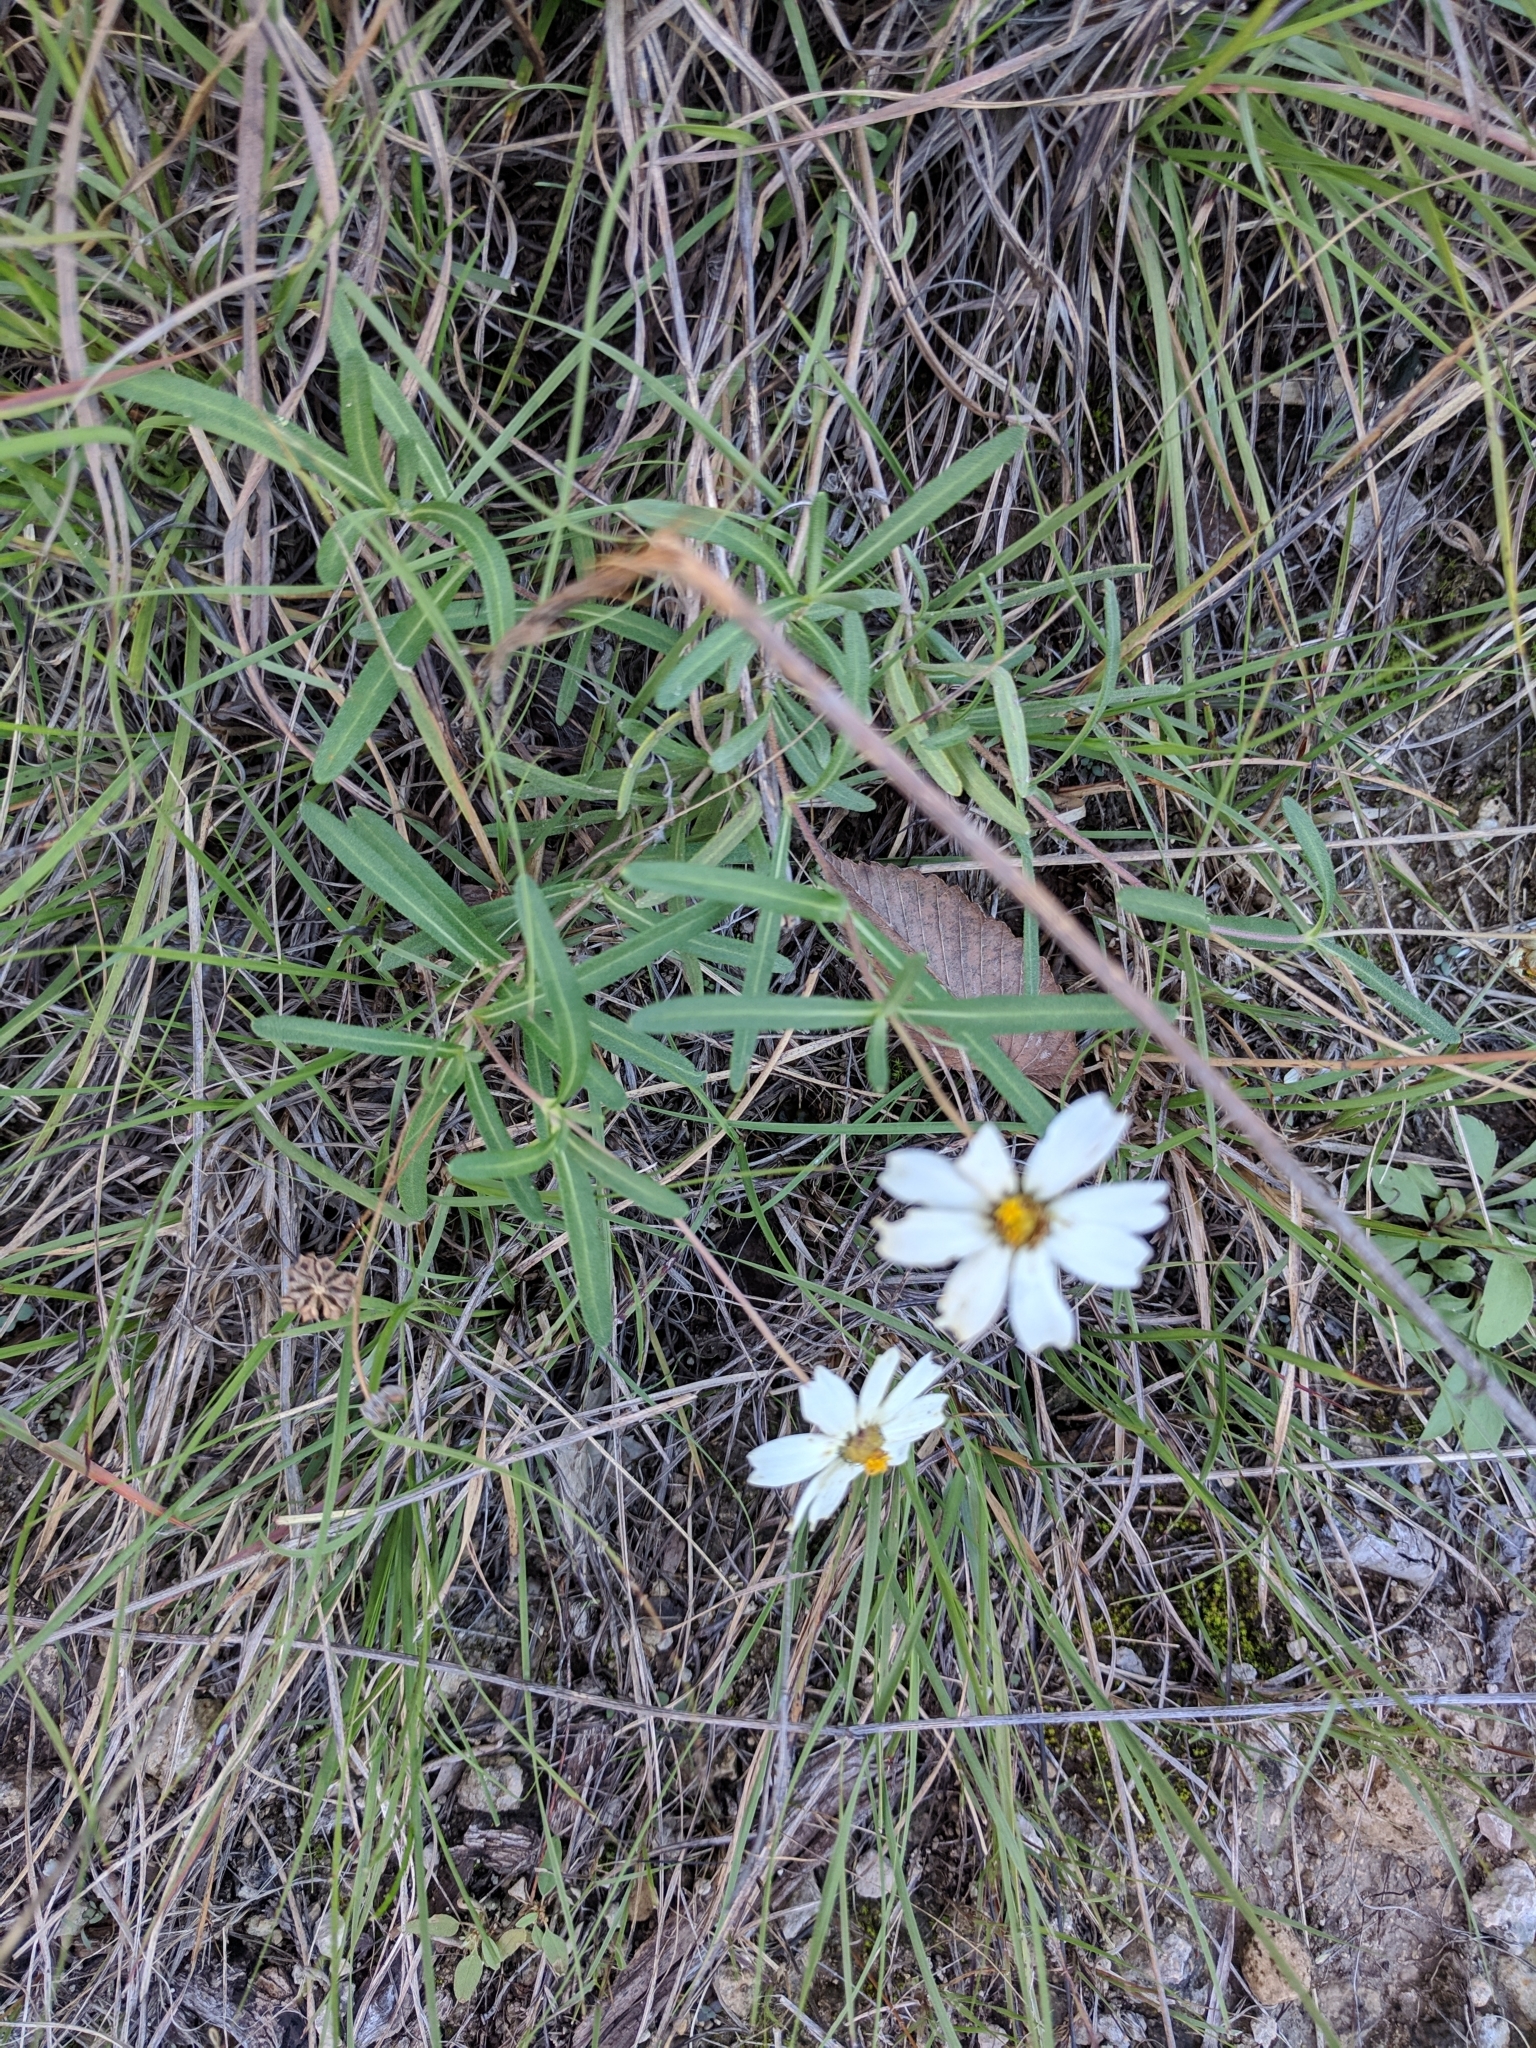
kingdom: Plantae
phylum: Tracheophyta
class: Magnoliopsida
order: Asterales
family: Asteraceae
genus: Melampodium
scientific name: Melampodium leucanthum
